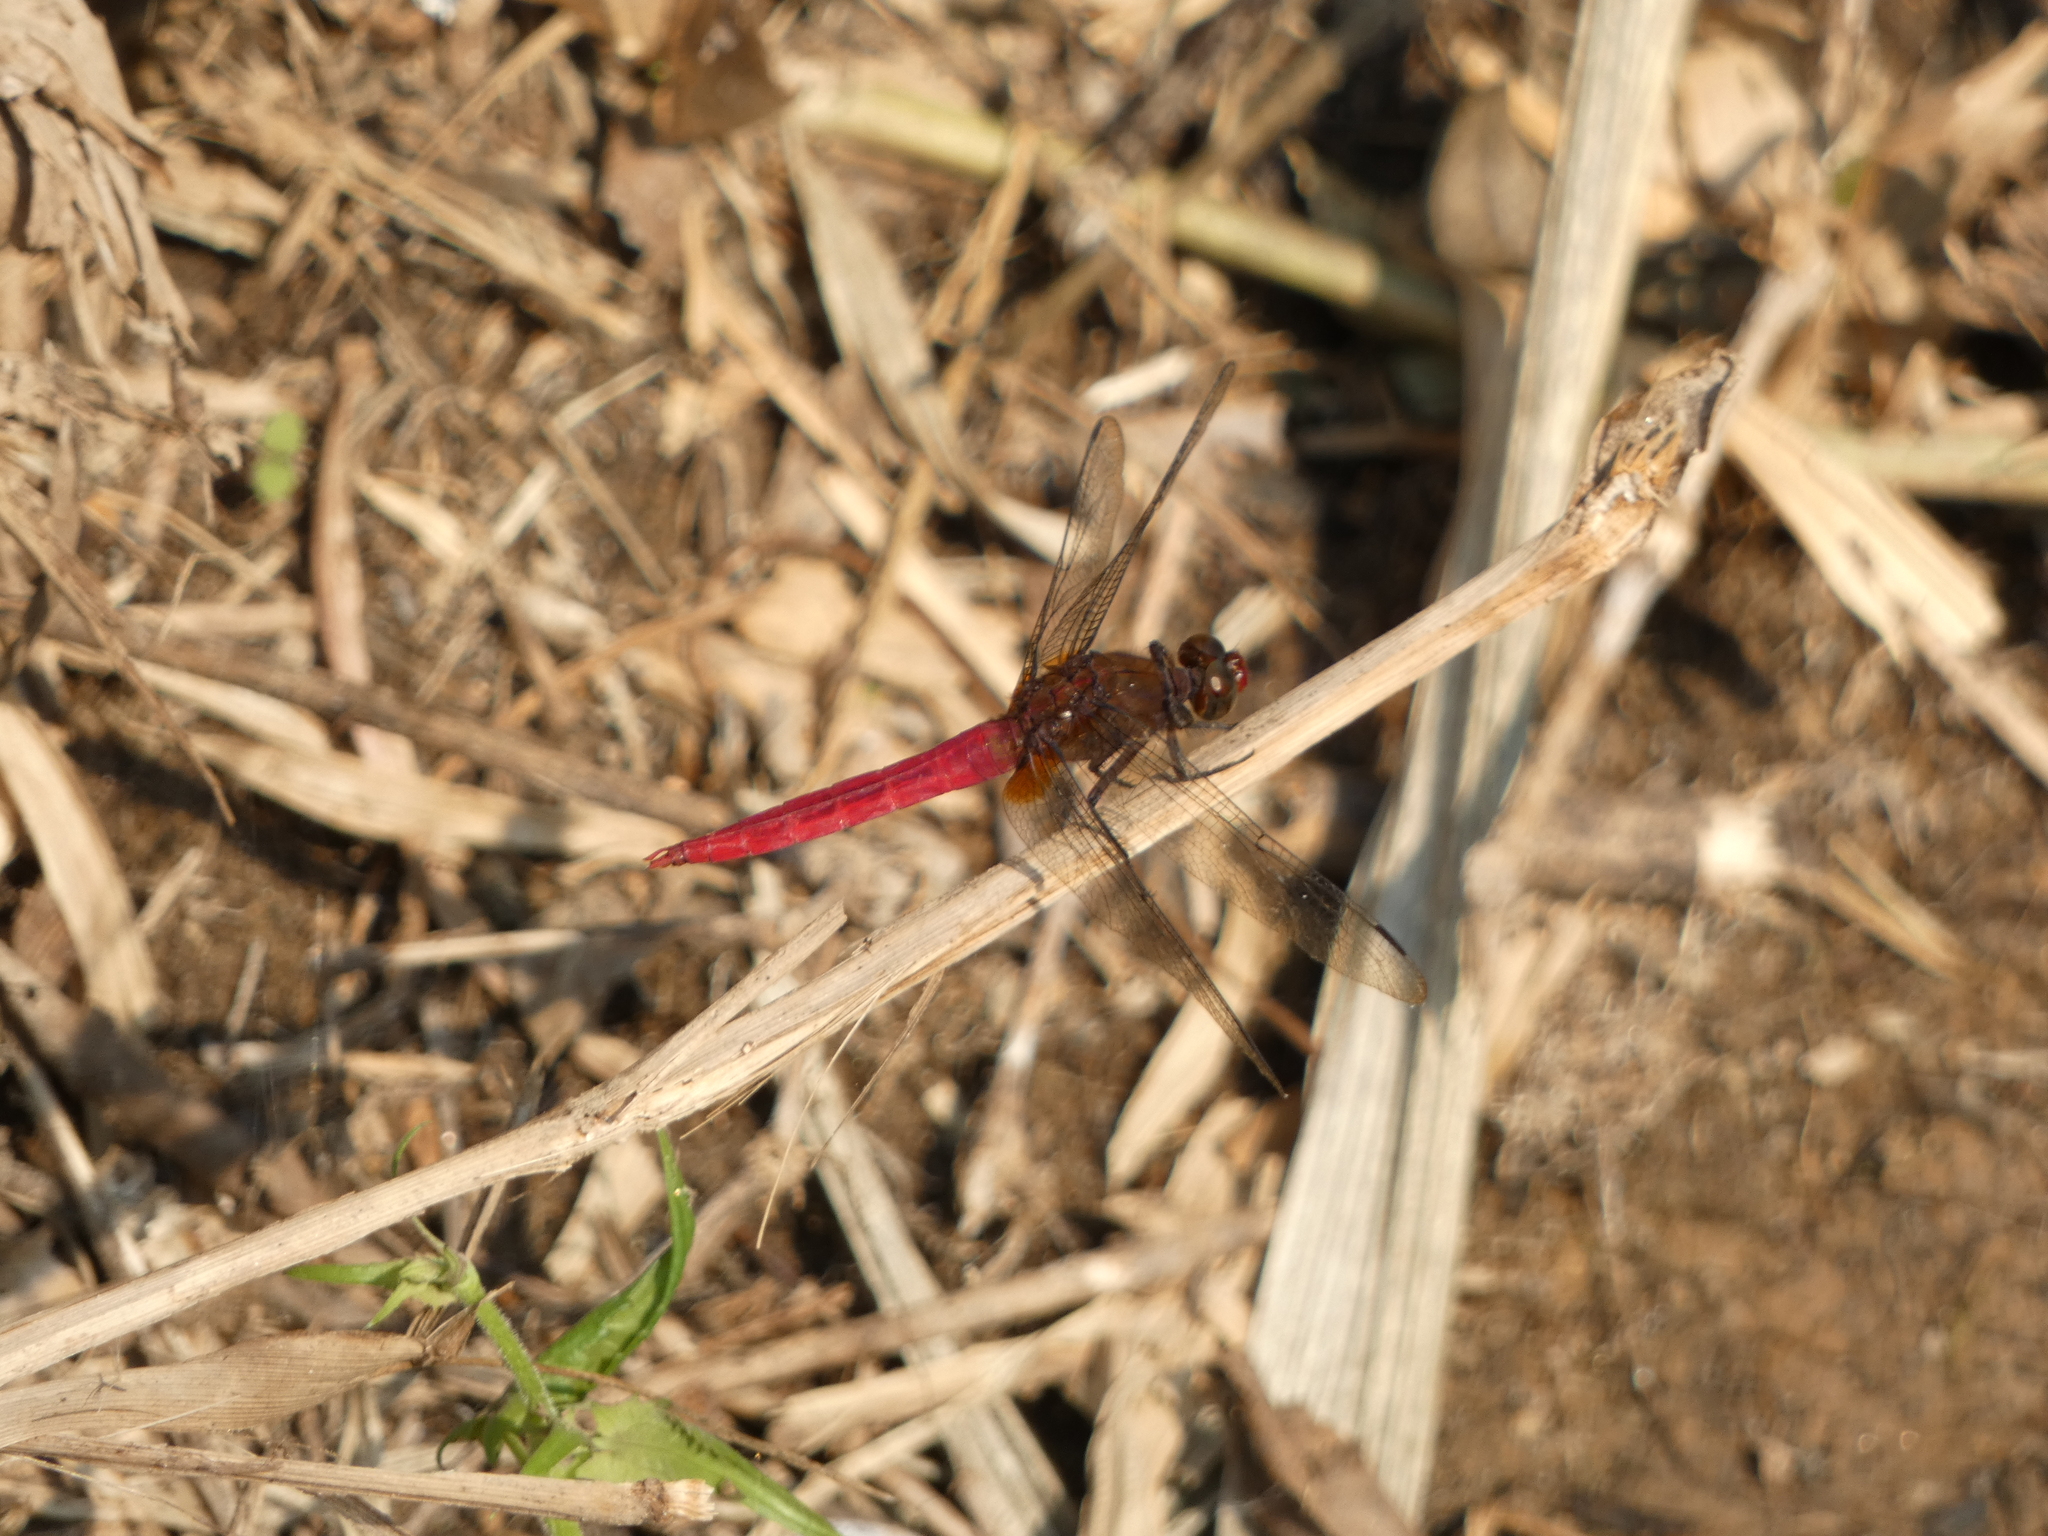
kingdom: Animalia
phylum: Arthropoda
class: Insecta
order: Odonata
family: Libellulidae
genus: Orthetrum
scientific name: Orthetrum chrysis
